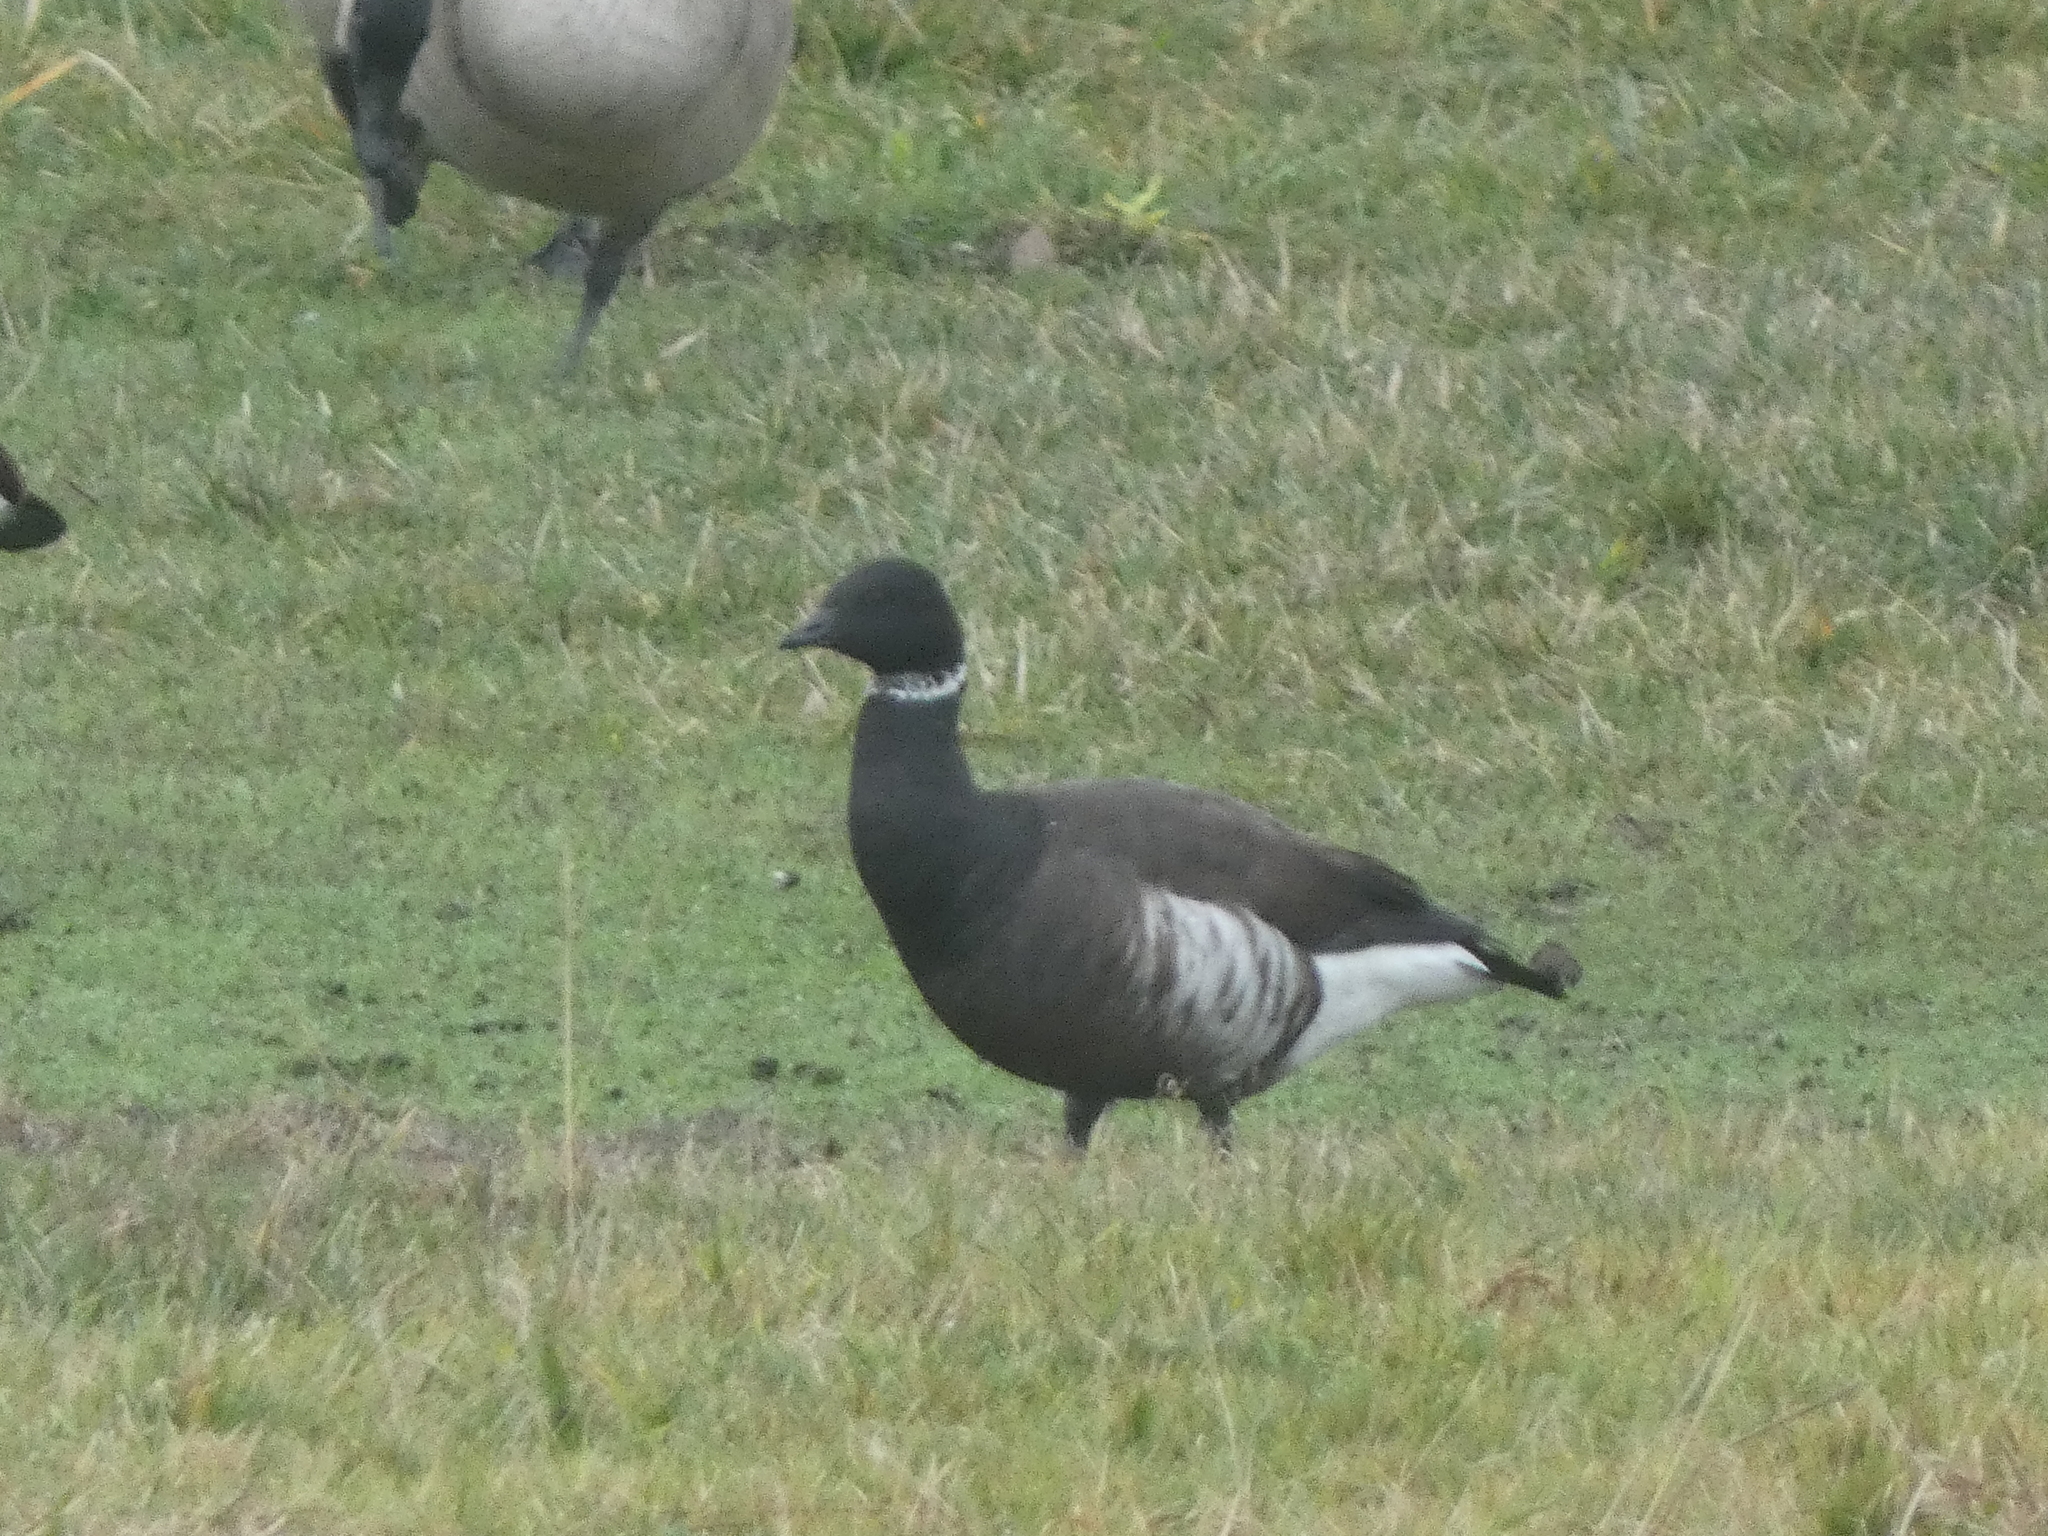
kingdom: Animalia
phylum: Chordata
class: Aves
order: Anseriformes
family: Anatidae
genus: Branta
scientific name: Branta bernicla
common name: Brant goose
